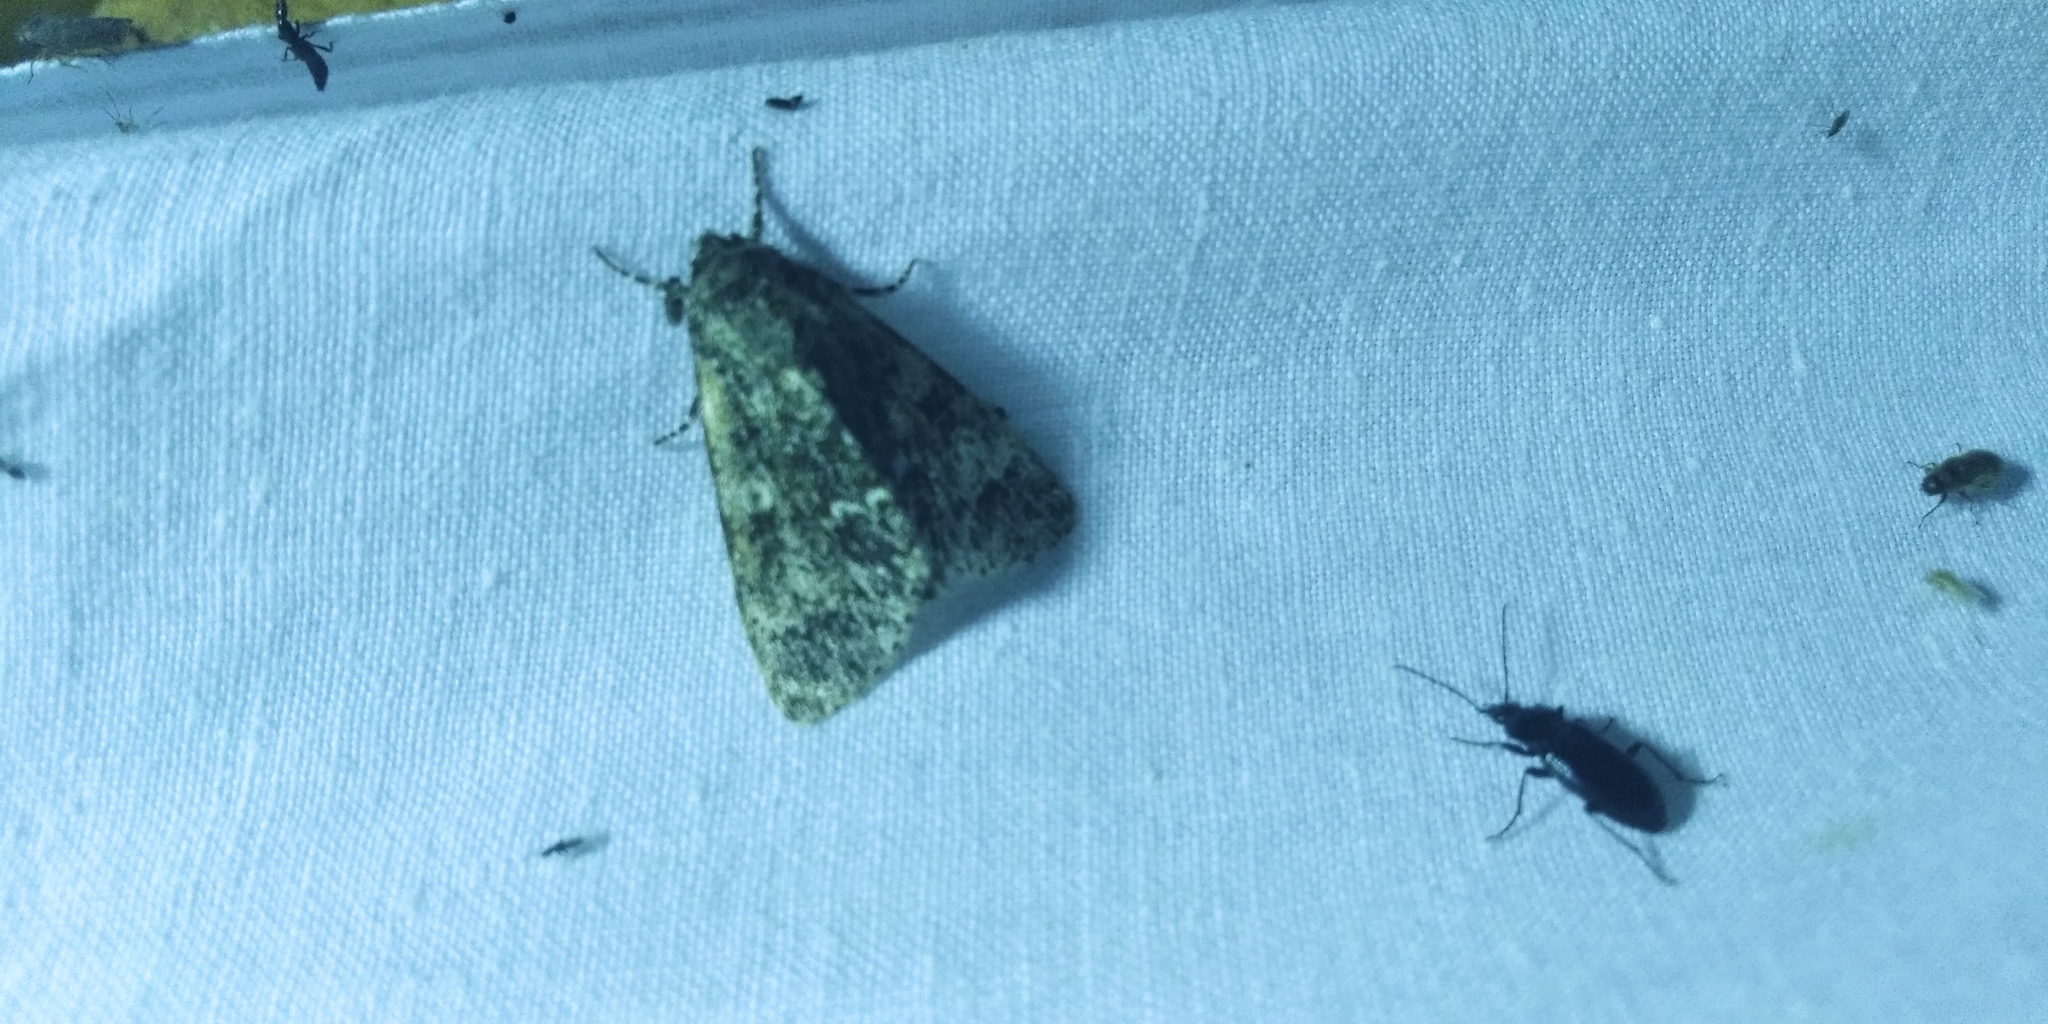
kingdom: Animalia
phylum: Arthropoda
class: Insecta
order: Lepidoptera
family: Noctuidae
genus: Acronicta
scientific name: Acronicta megacephala
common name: Poplar grey
